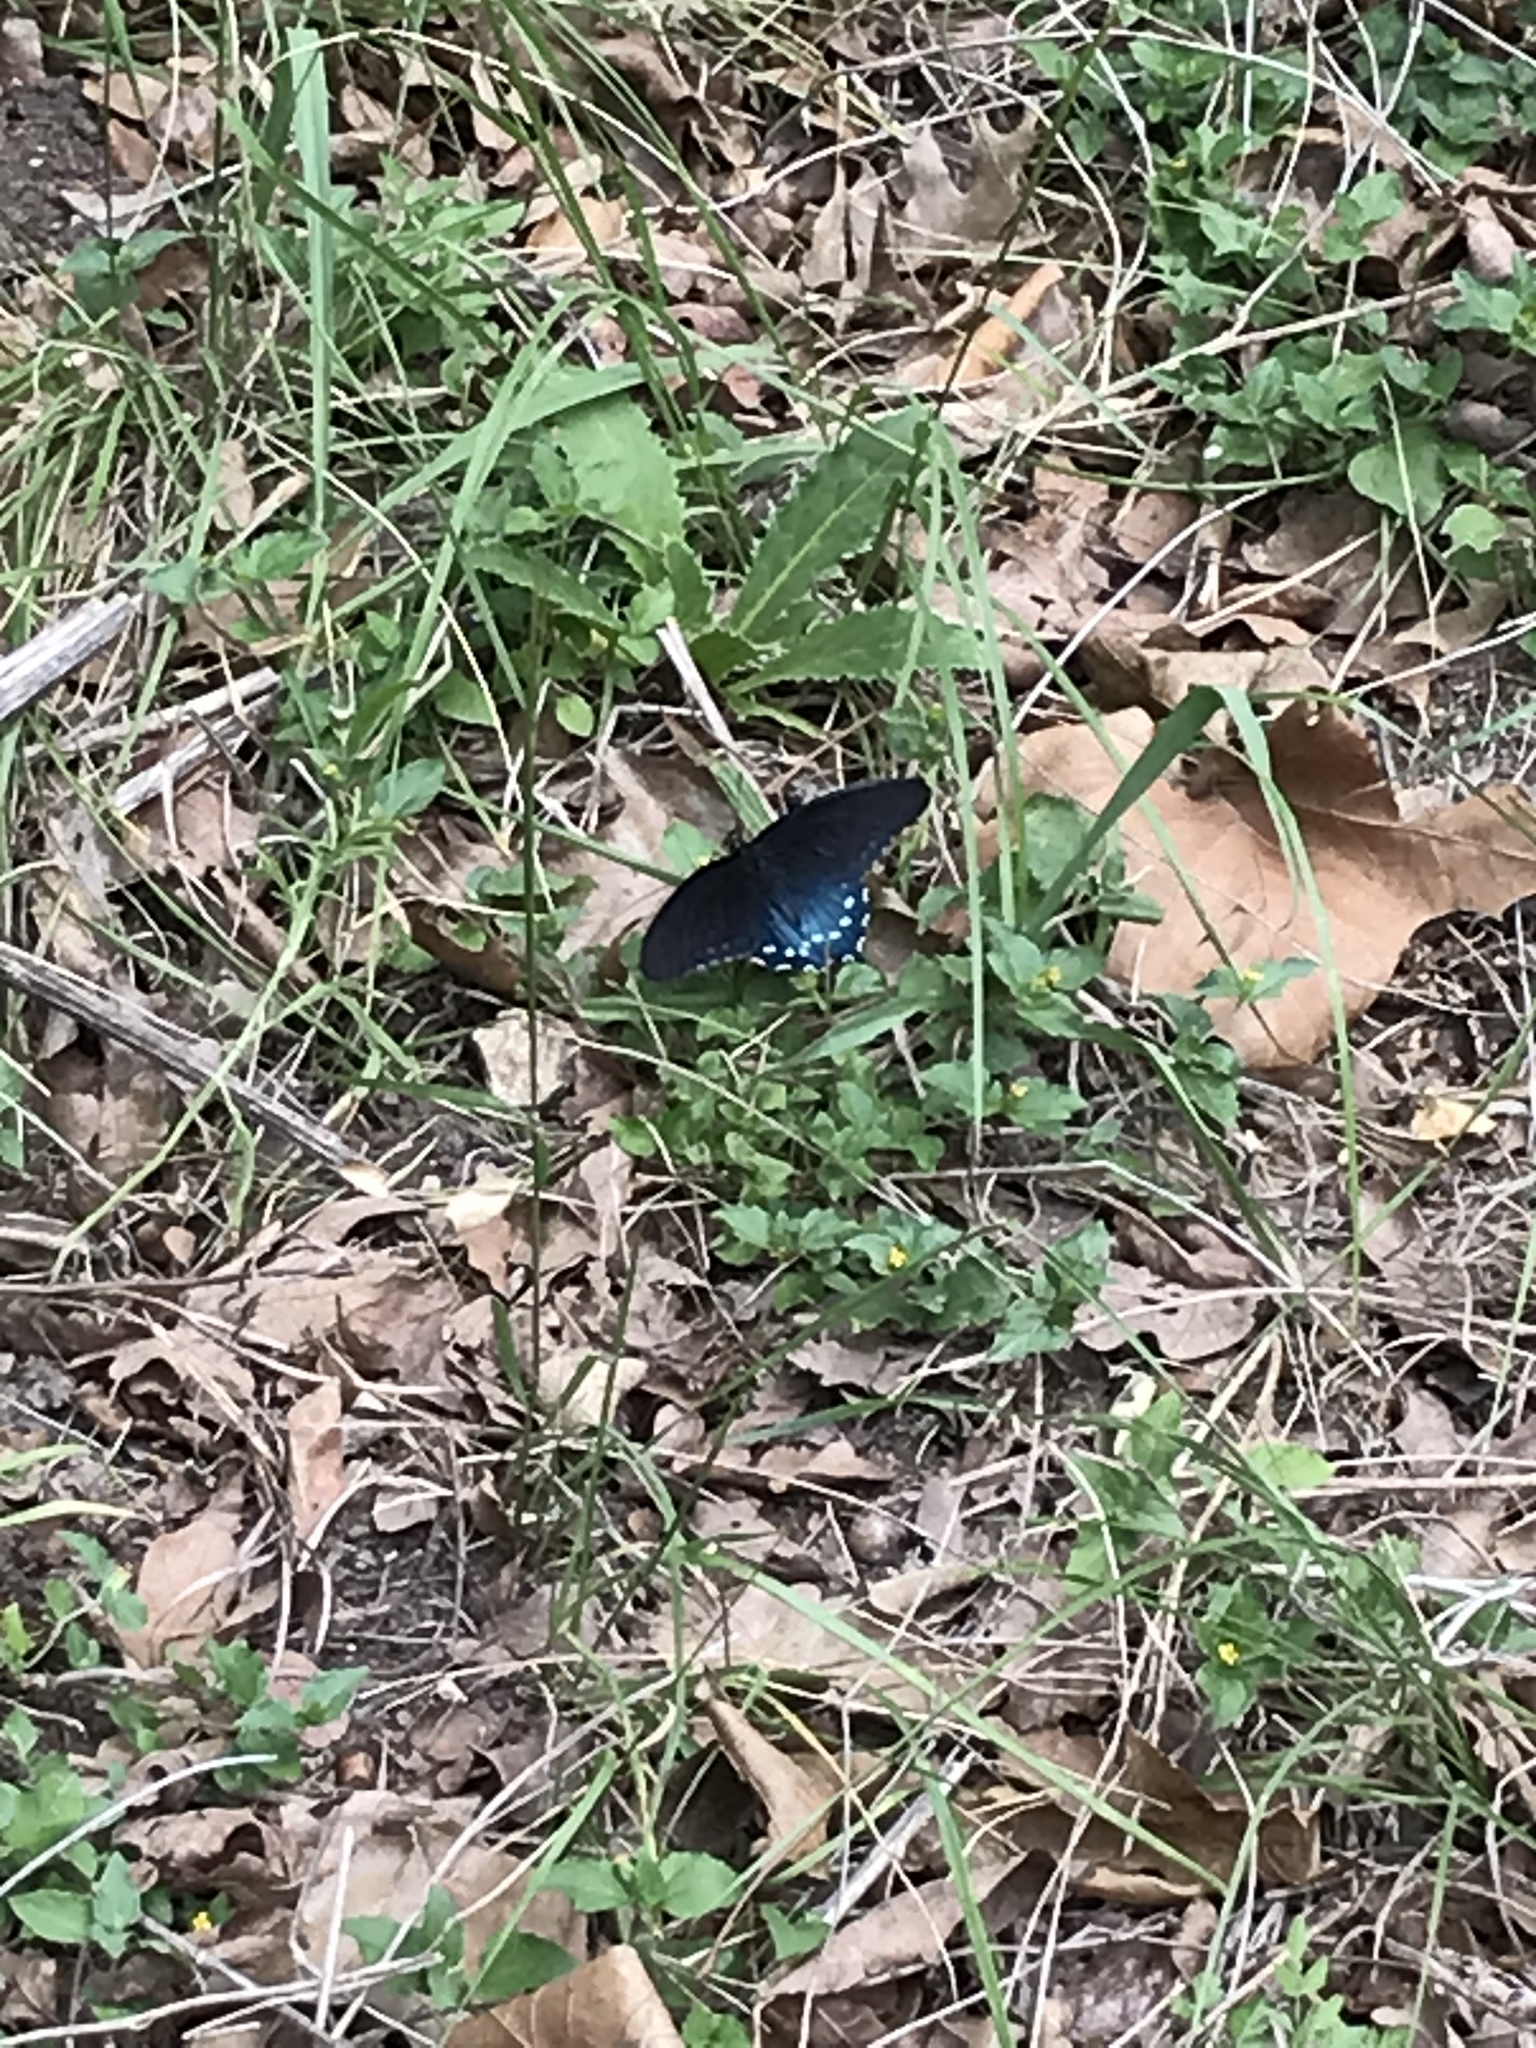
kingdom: Animalia
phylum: Arthropoda
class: Insecta
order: Lepidoptera
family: Papilionidae
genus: Battus
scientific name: Battus philenor
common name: Pipevine swallowtail
